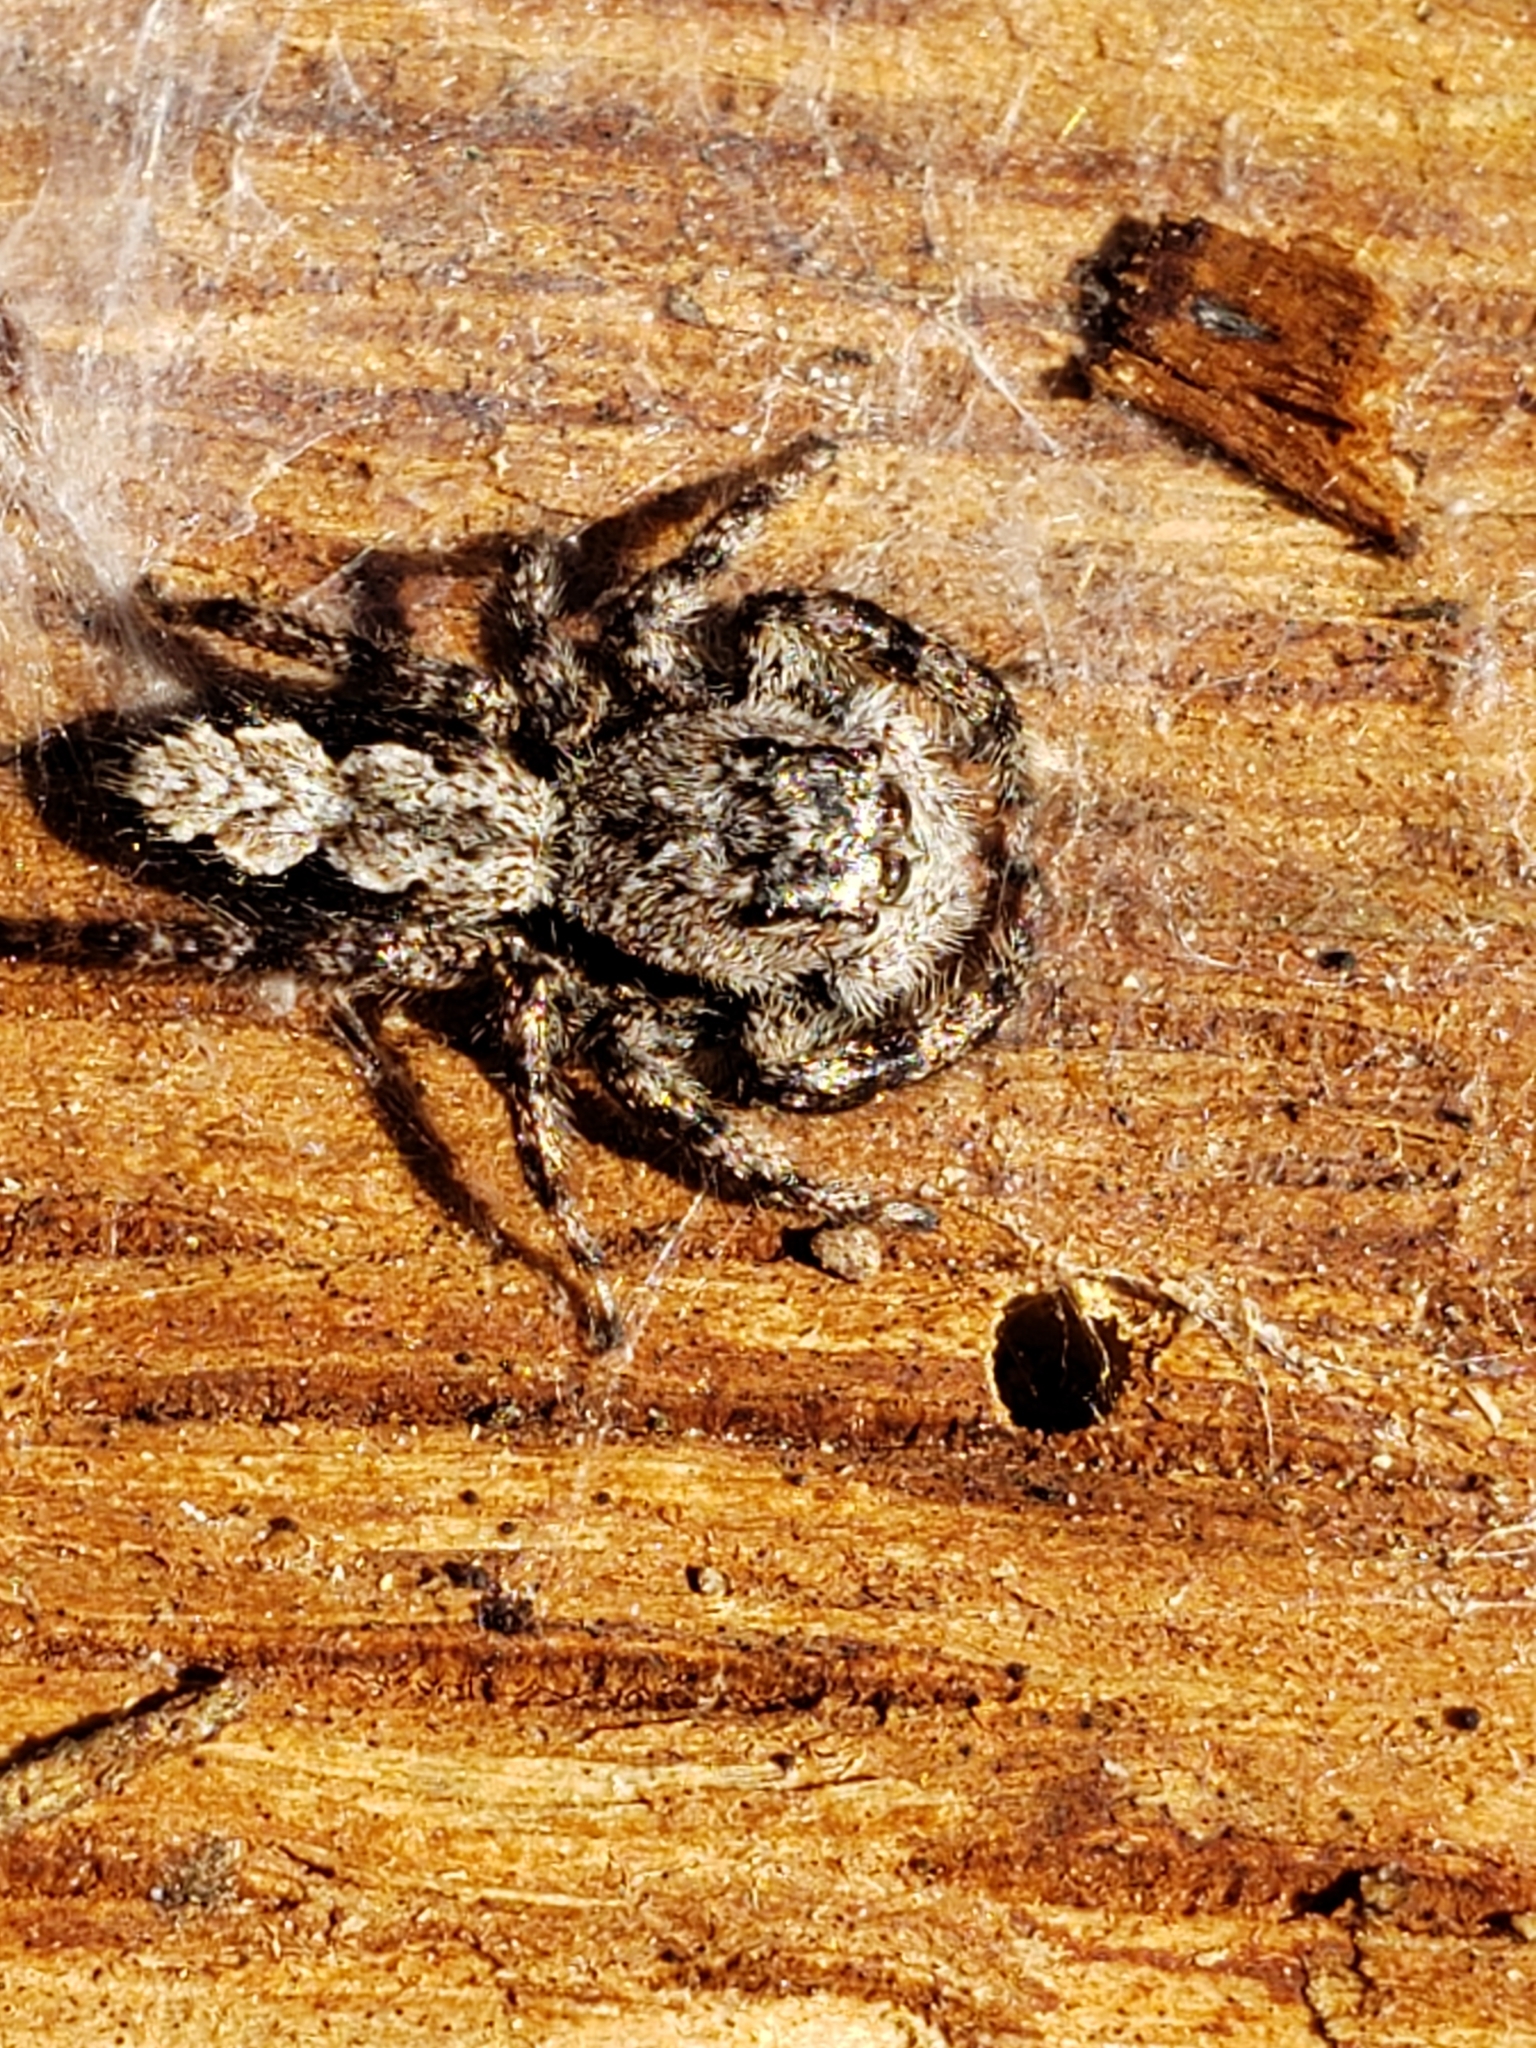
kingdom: Animalia
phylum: Arthropoda
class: Arachnida
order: Araneae
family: Salticidae
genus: Platycryptus
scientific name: Platycryptus undatus
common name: Tan jumping spider
